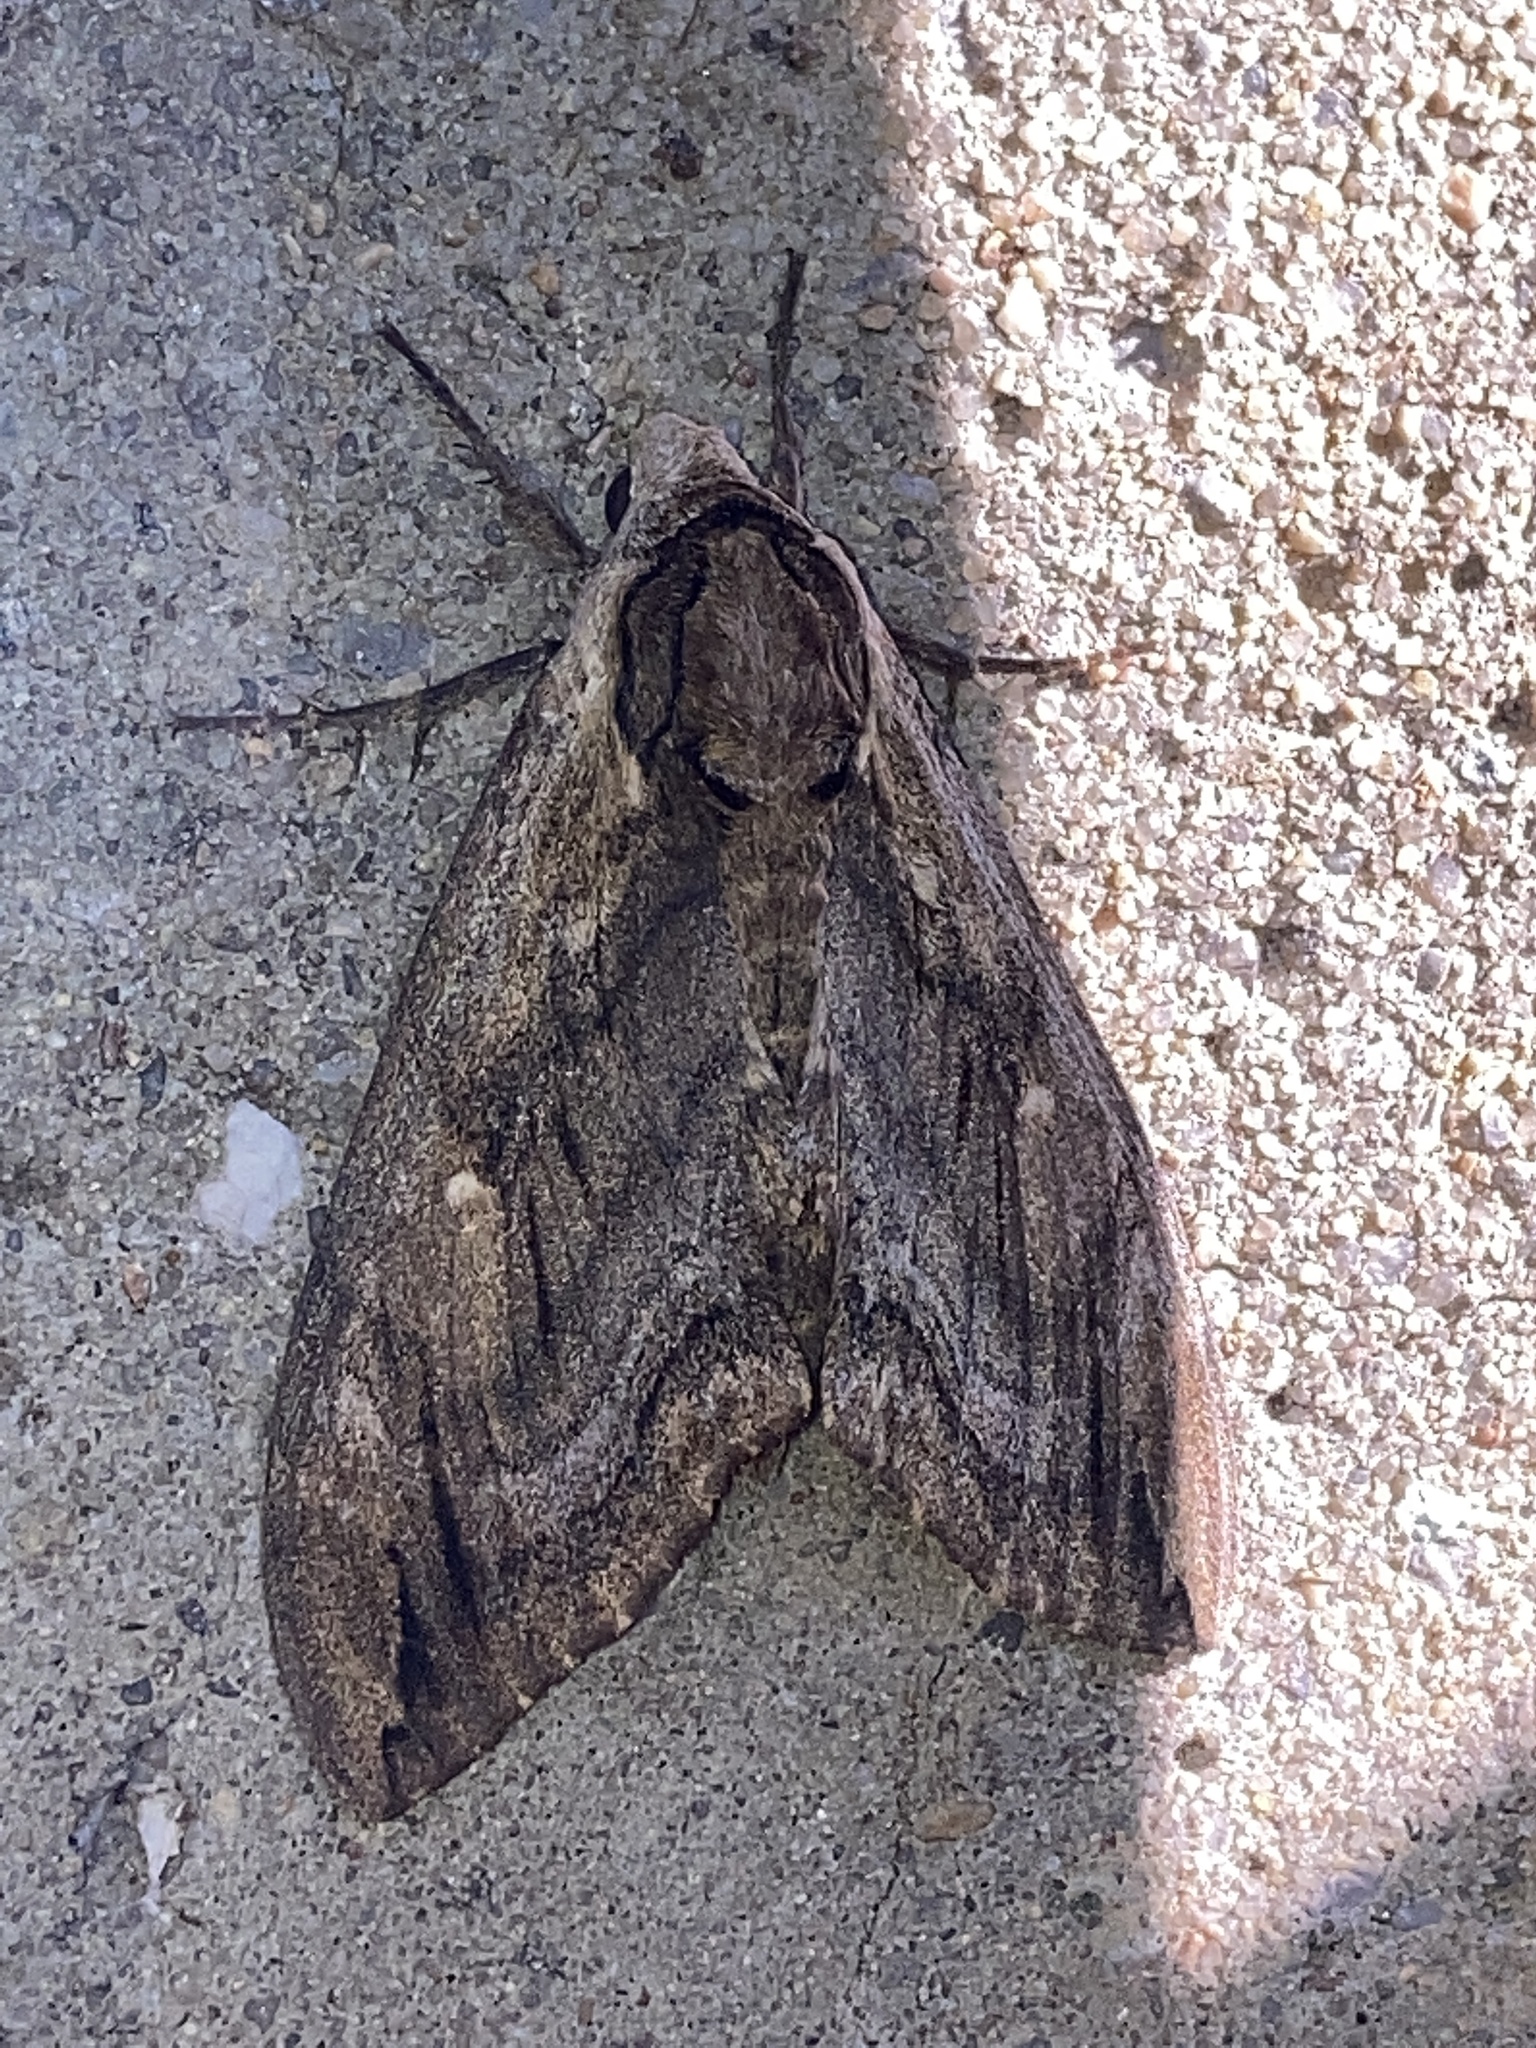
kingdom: Animalia
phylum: Arthropoda
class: Insecta
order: Lepidoptera
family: Sphingidae
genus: Ceratomia
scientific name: Ceratomia amyntor
